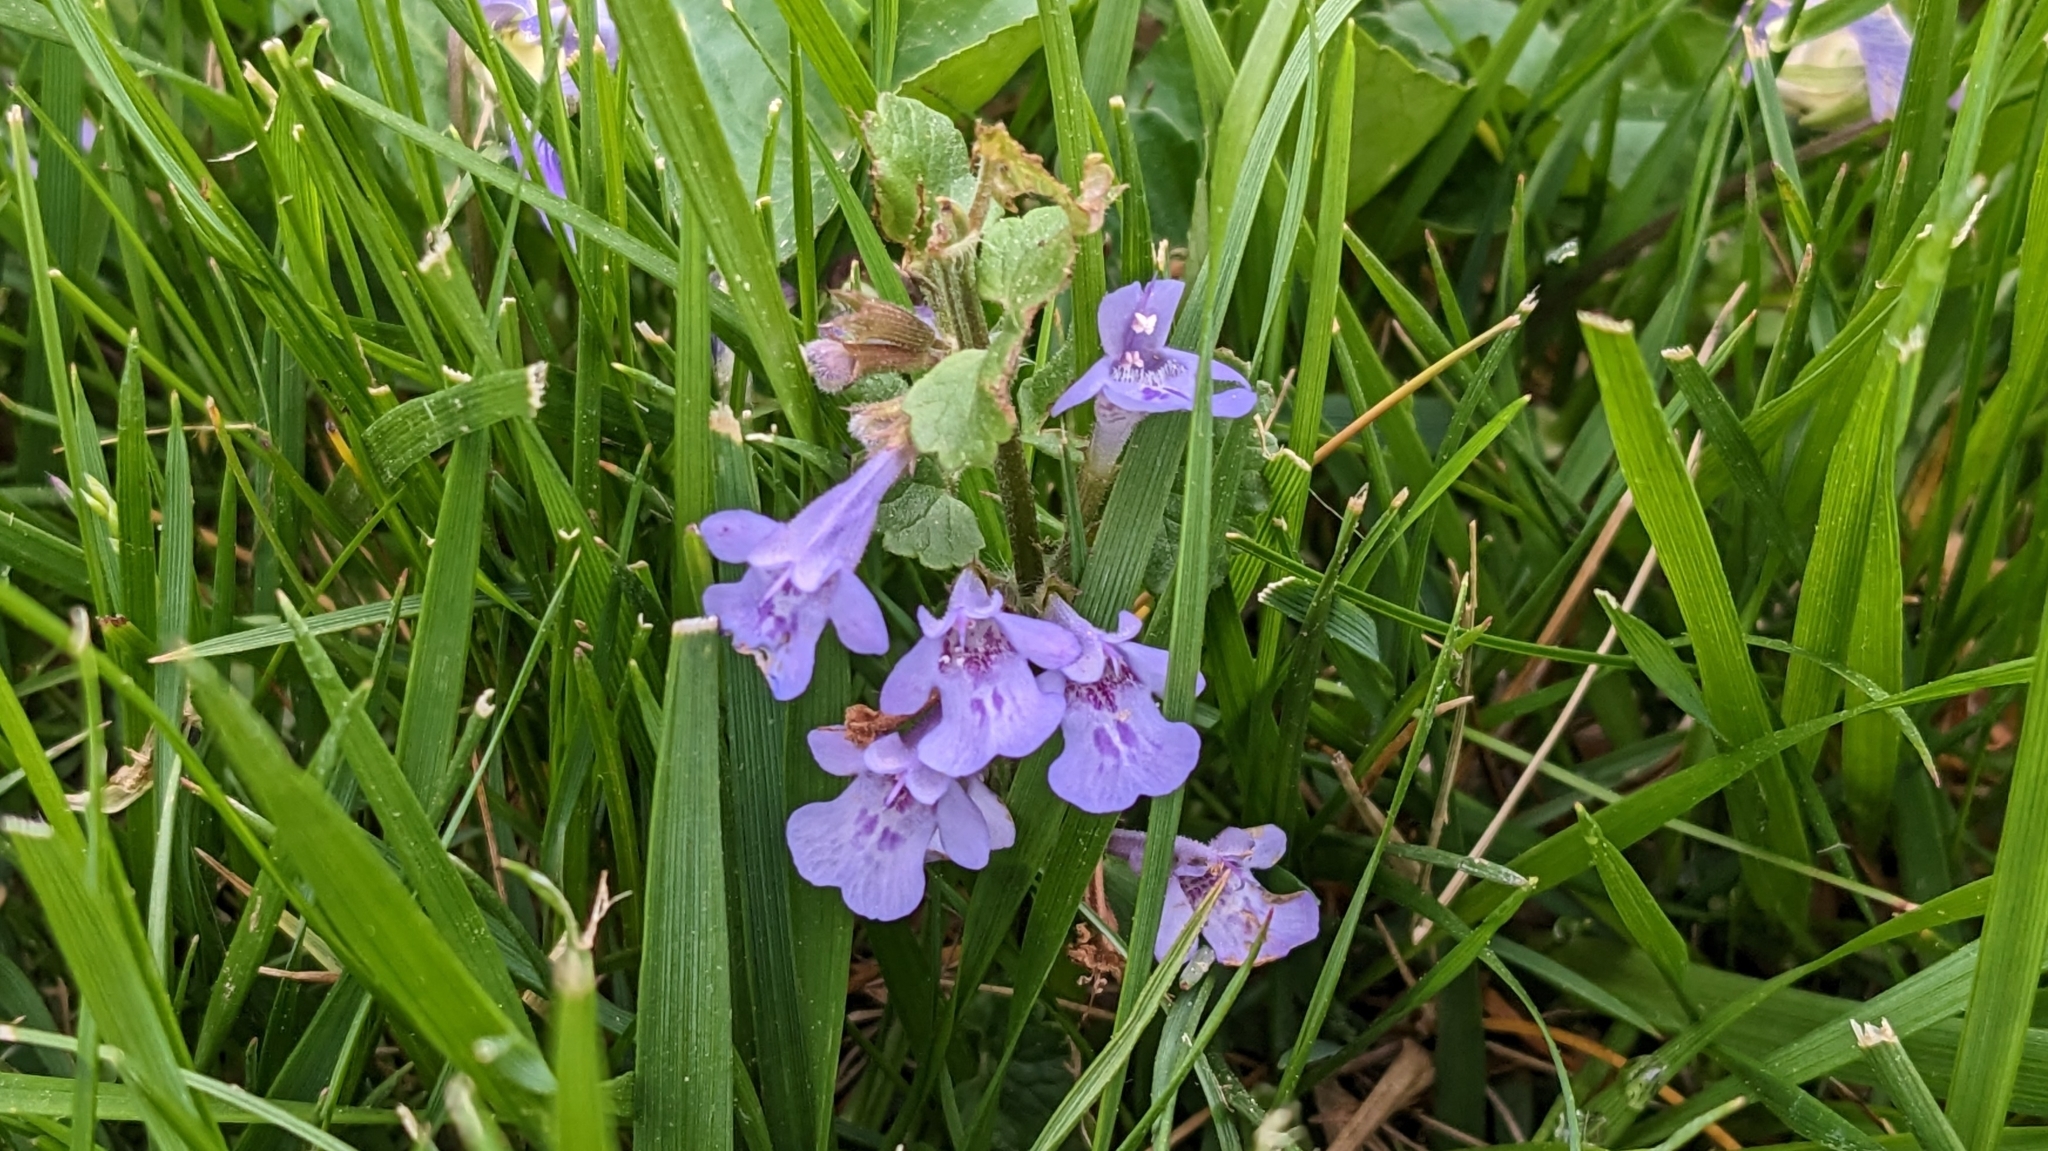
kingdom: Plantae
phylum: Tracheophyta
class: Magnoliopsida
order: Lamiales
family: Lamiaceae
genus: Glechoma
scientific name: Glechoma hederacea
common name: Ground ivy
